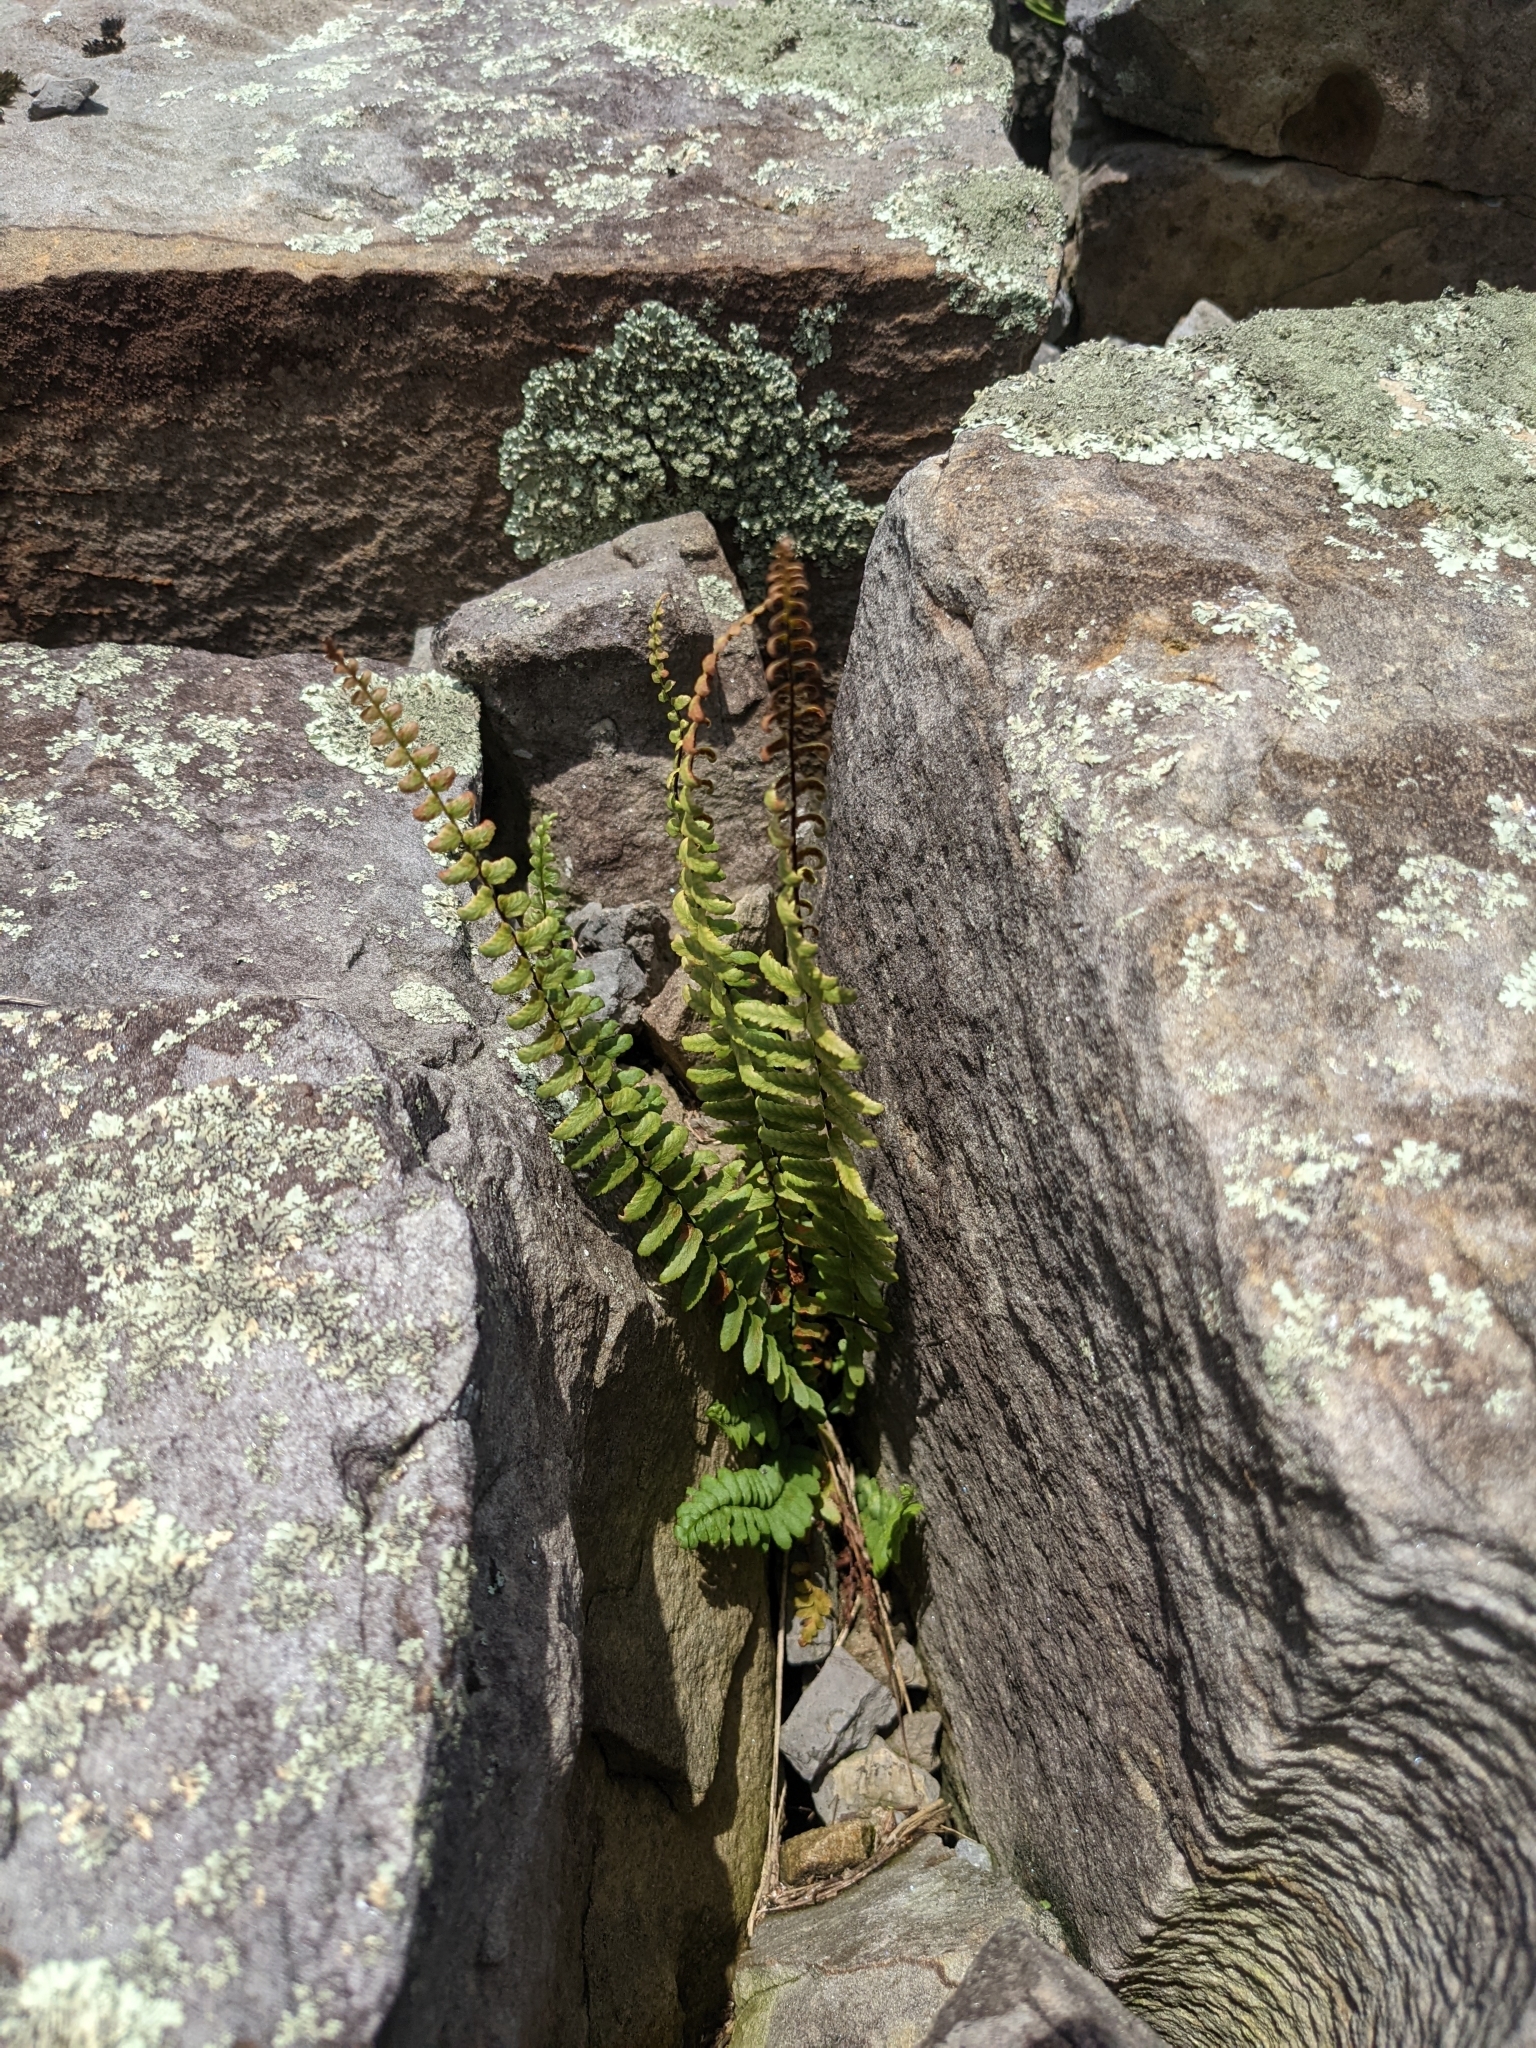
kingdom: Plantae
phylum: Tracheophyta
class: Polypodiopsida
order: Polypodiales
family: Aspleniaceae
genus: Asplenium
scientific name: Asplenium platyneuron
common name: Ebony spleenwort
